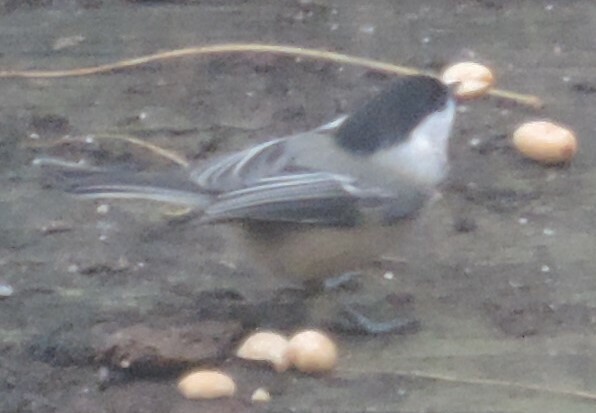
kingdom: Animalia
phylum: Chordata
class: Aves
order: Passeriformes
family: Paridae
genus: Poecile
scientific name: Poecile atricapillus
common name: Black-capped chickadee
